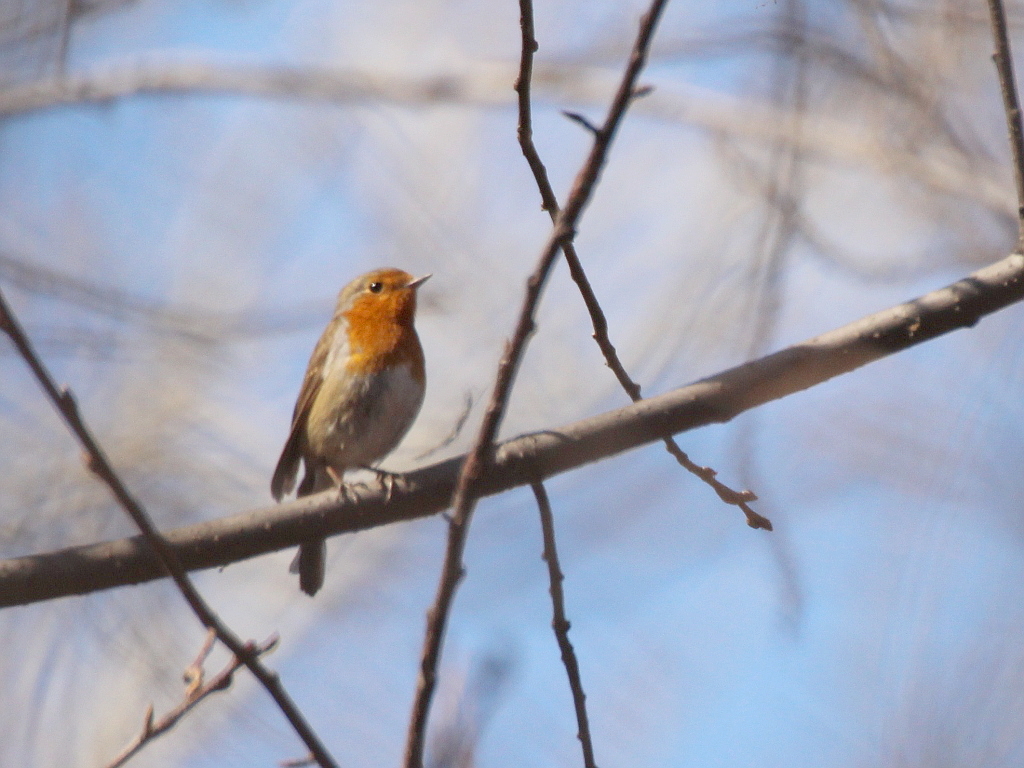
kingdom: Animalia
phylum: Chordata
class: Aves
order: Passeriformes
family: Muscicapidae
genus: Erithacus
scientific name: Erithacus rubecula
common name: European robin
